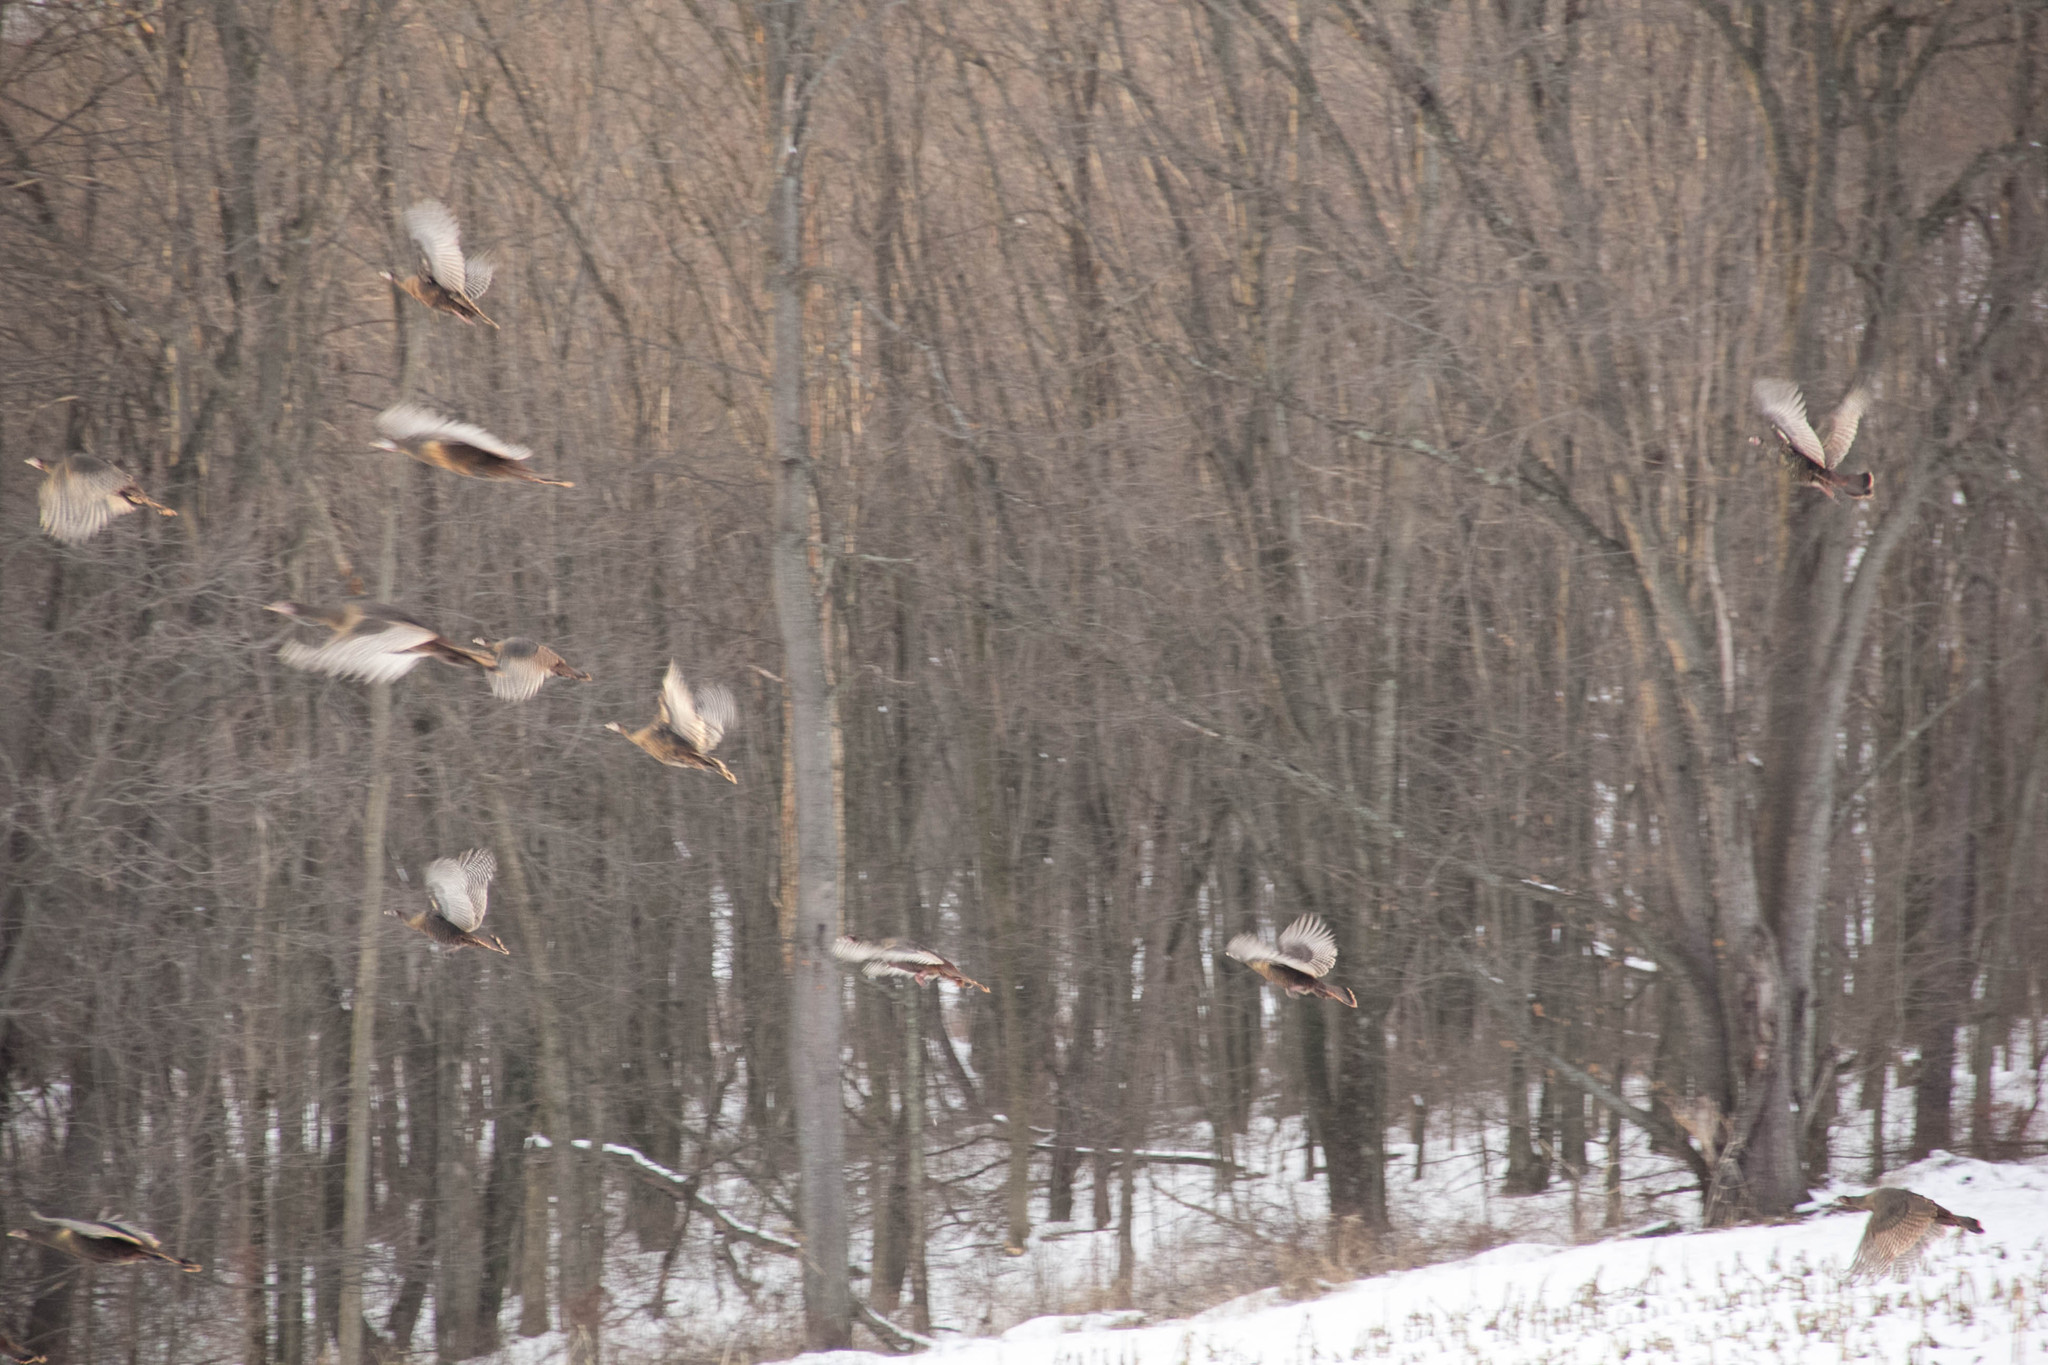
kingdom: Animalia
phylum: Chordata
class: Aves
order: Galliformes
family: Phasianidae
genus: Meleagris
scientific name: Meleagris gallopavo
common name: Wild turkey
